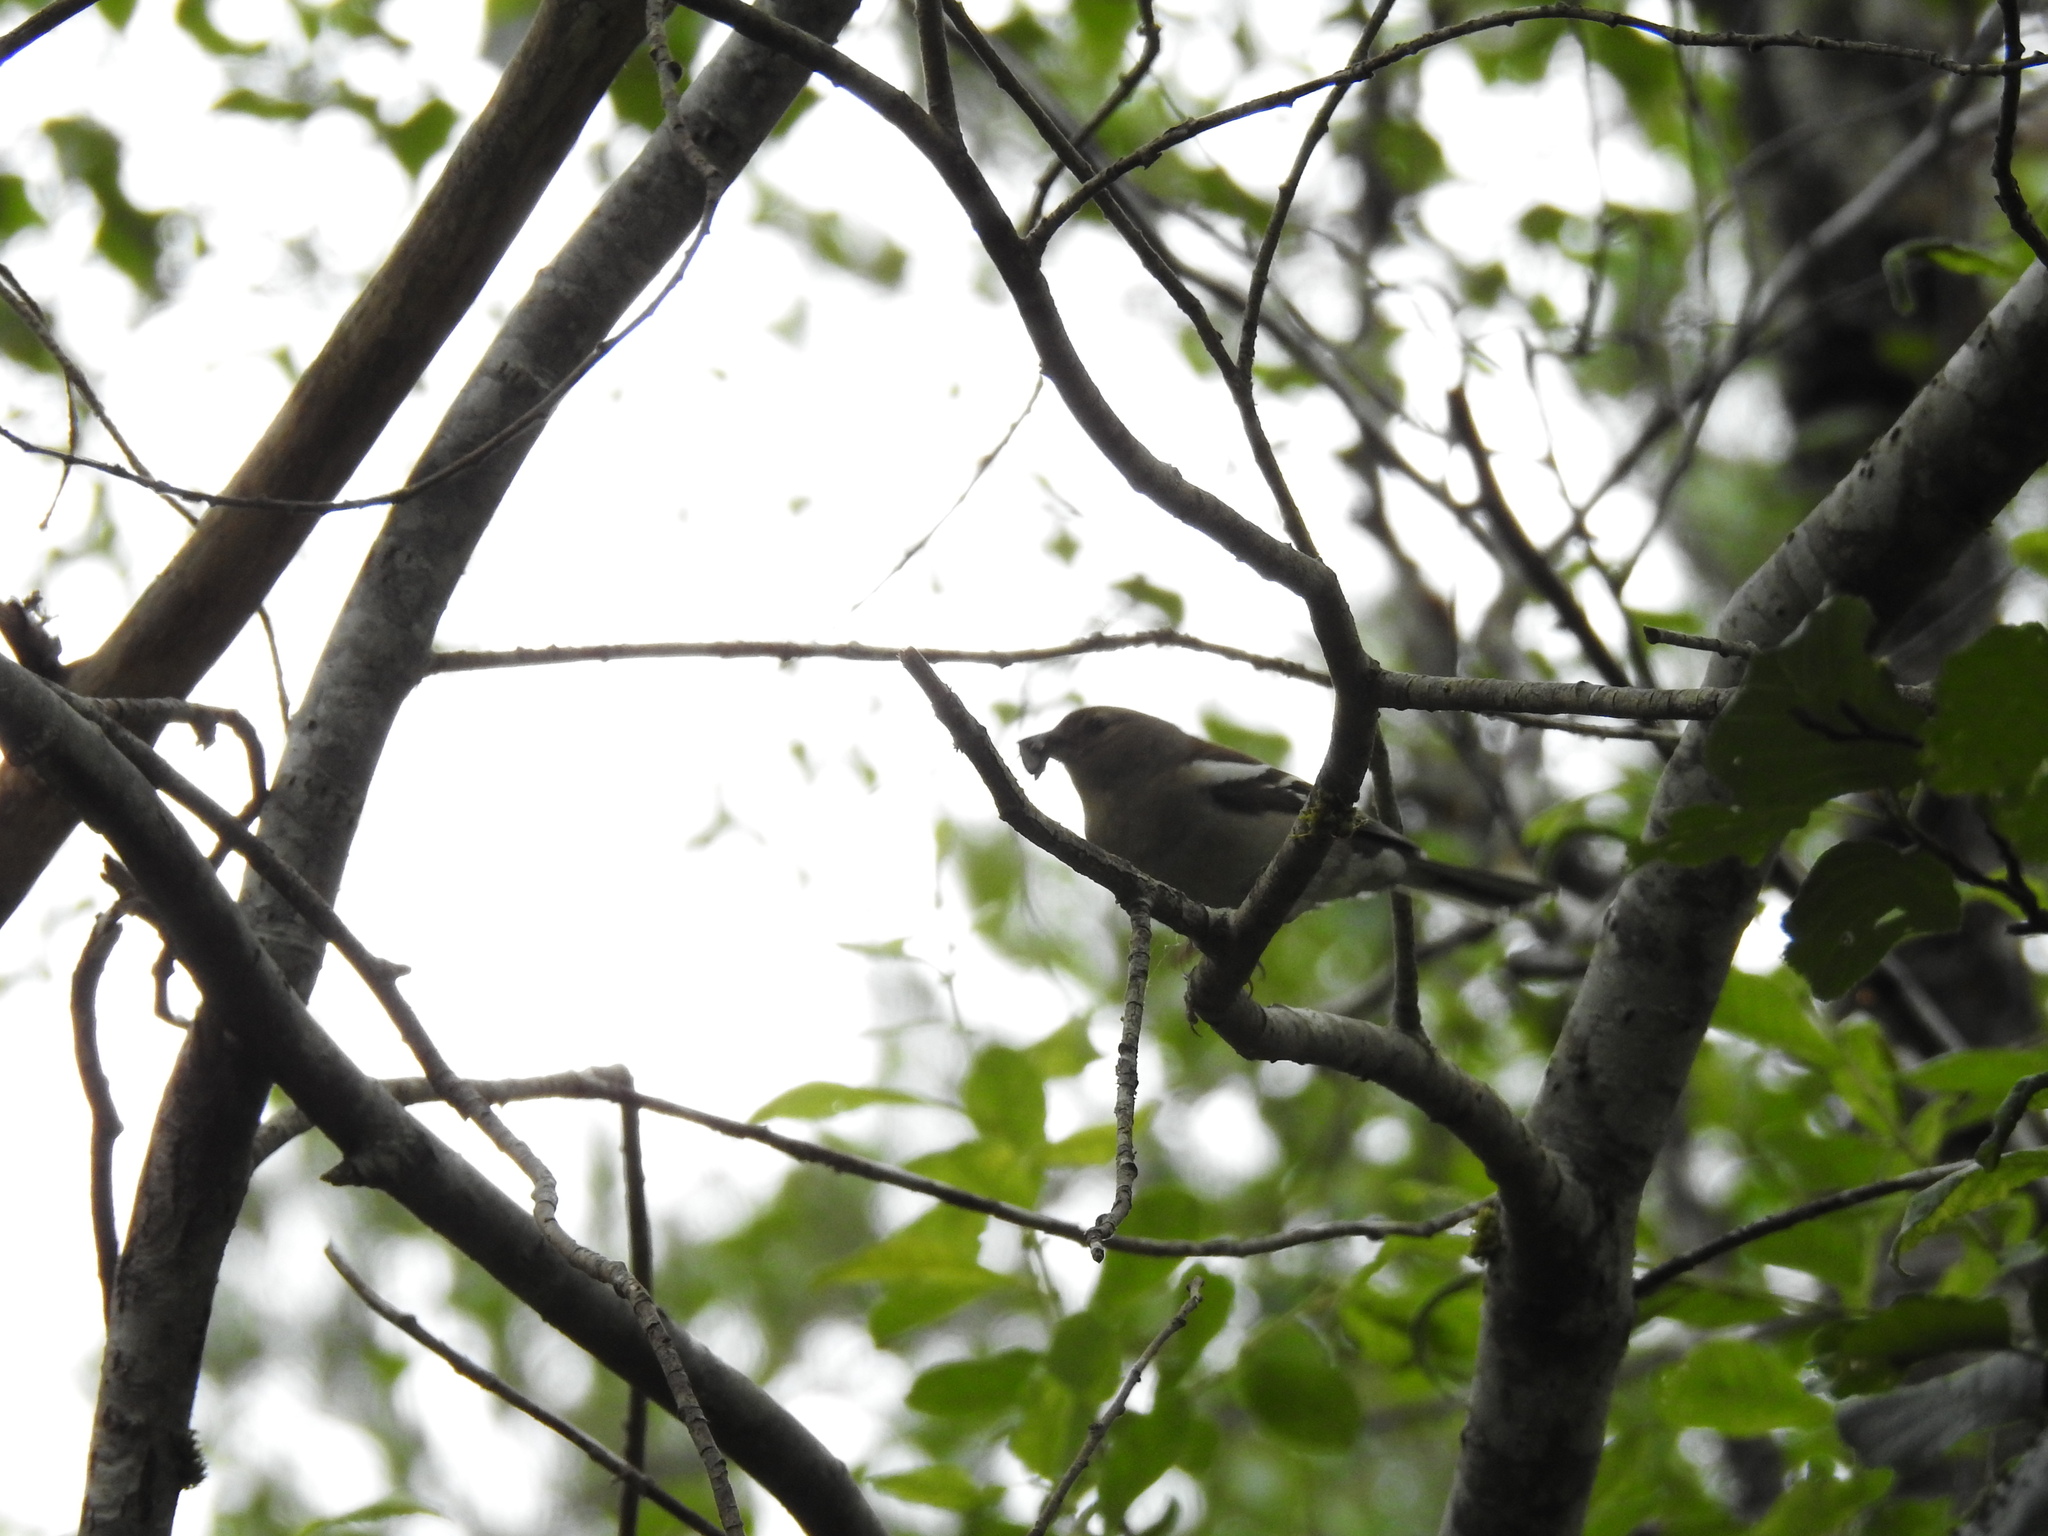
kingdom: Animalia
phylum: Chordata
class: Aves
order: Passeriformes
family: Fringillidae
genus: Fringilla
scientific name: Fringilla coelebs
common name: Common chaffinch
